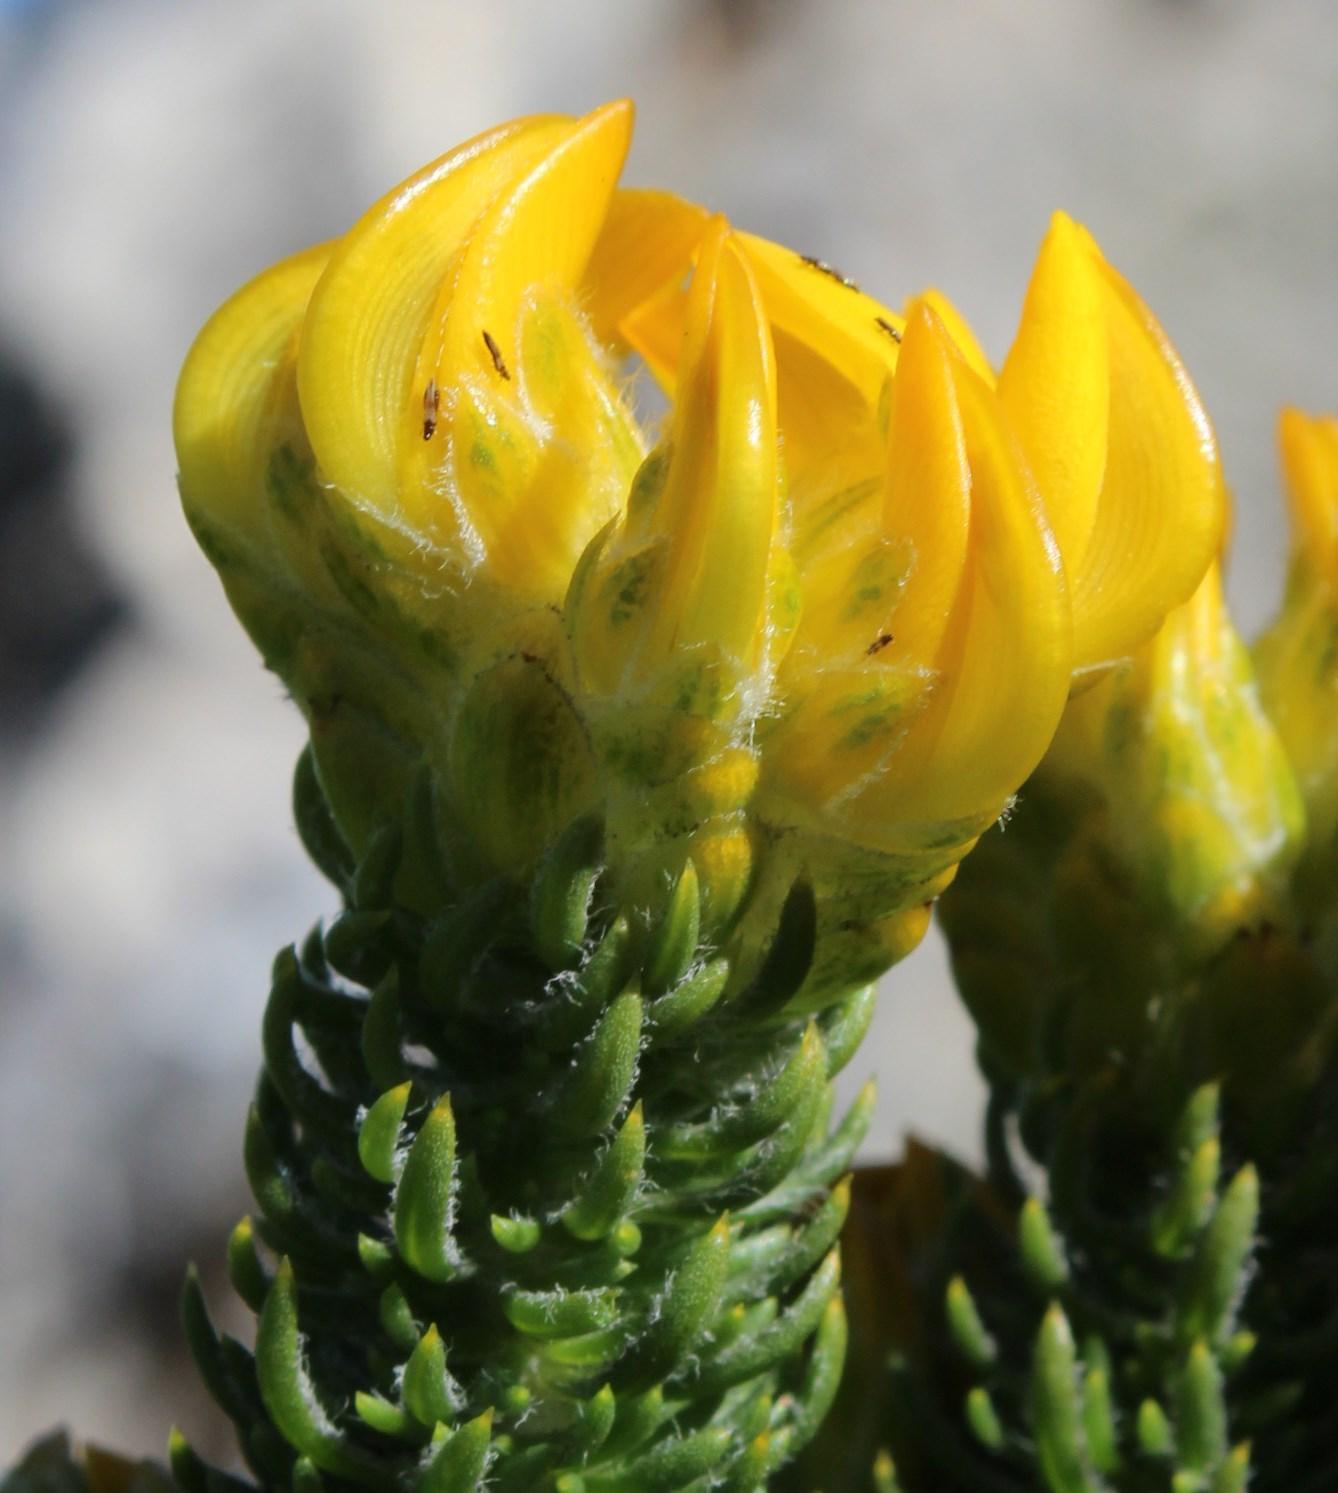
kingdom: Plantae
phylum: Tracheophyta
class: Magnoliopsida
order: Fabales
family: Fabaceae
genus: Aspalathus
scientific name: Aspalathus capitata
